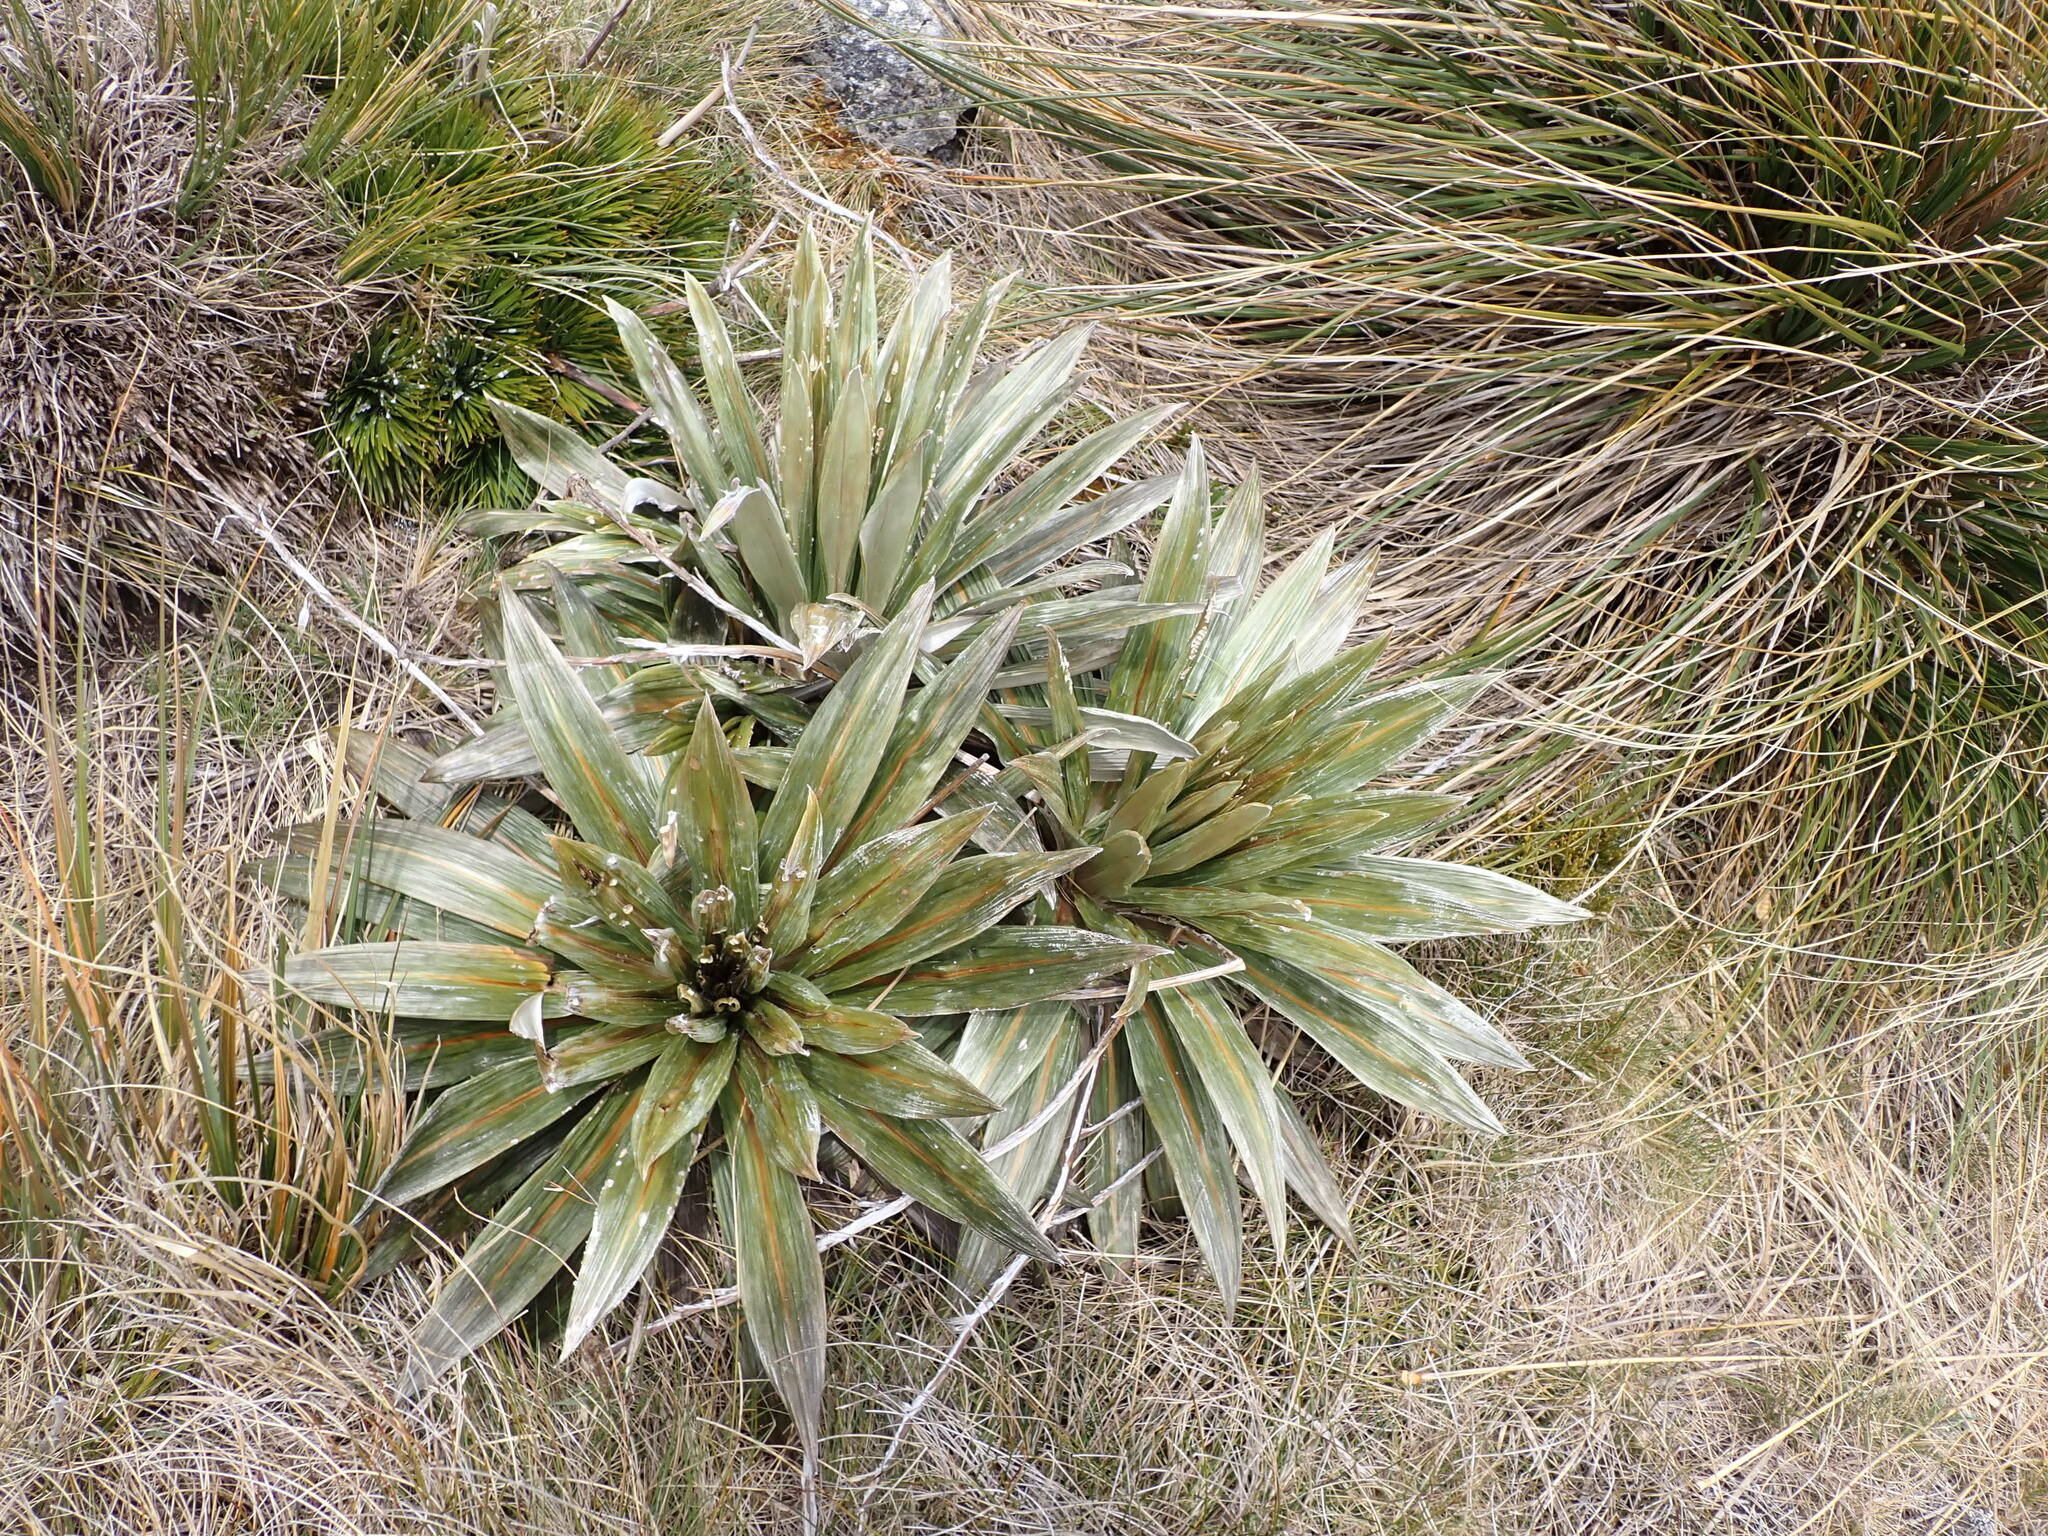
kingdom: Plantae
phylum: Tracheophyta
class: Magnoliopsida
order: Asterales
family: Asteraceae
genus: Celmisia
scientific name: Celmisia coriacea
